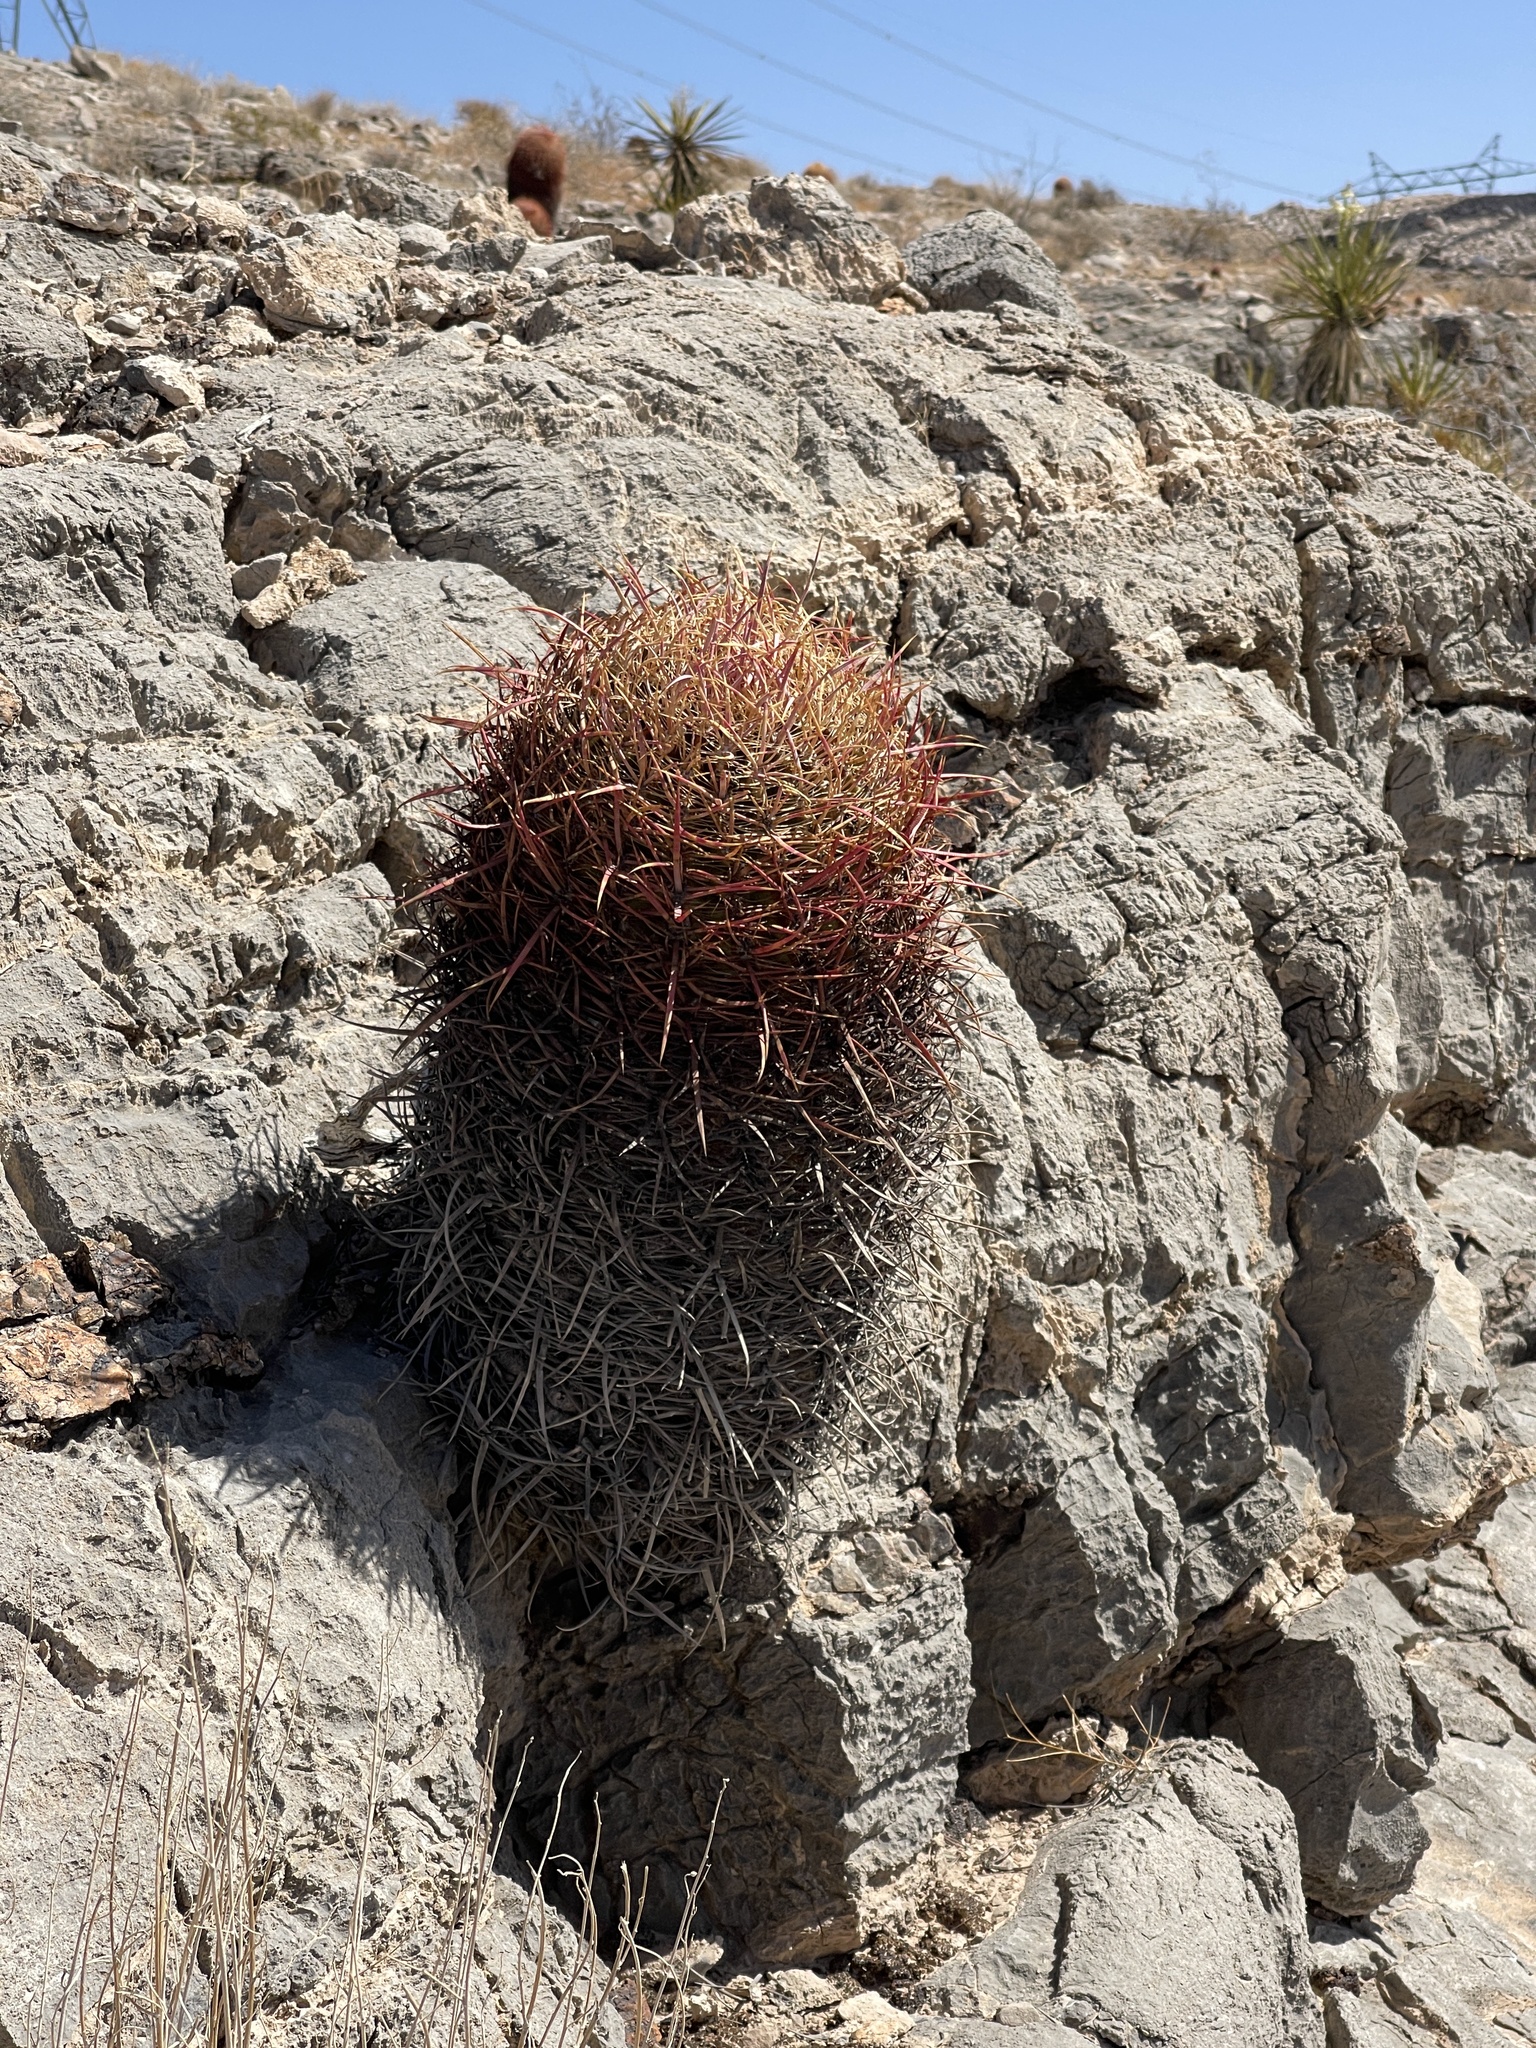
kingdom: Plantae
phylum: Tracheophyta
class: Magnoliopsida
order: Caryophyllales
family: Cactaceae
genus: Ferocactus
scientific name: Ferocactus cylindraceus
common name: California barrel cactus
